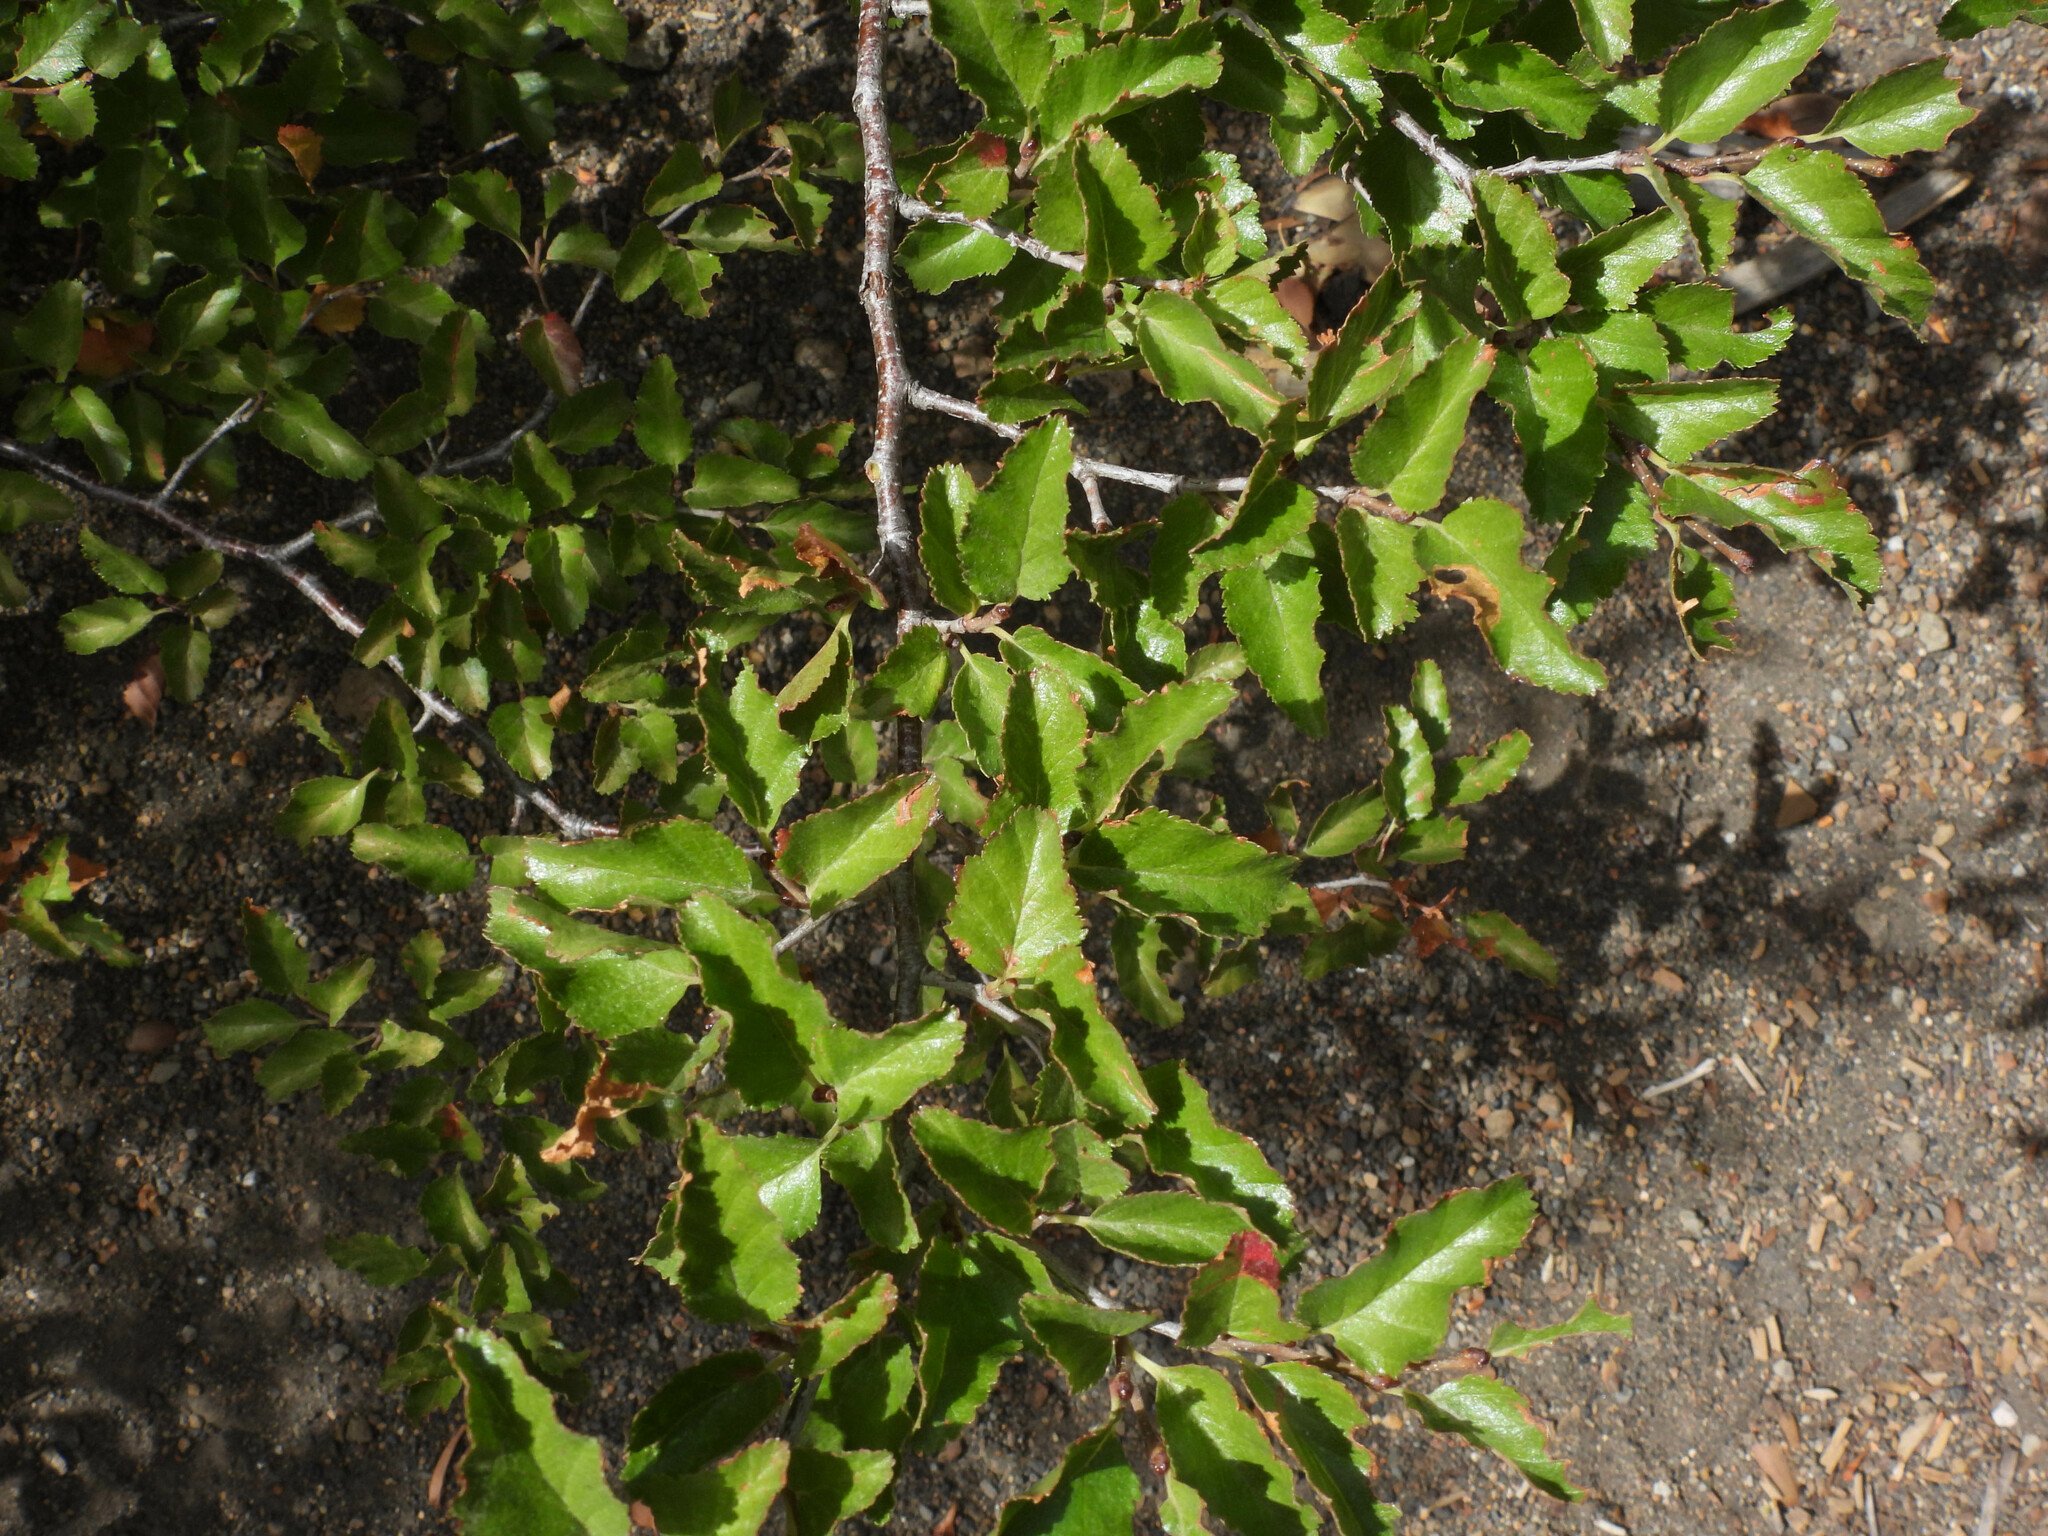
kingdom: Plantae
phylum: Tracheophyta
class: Magnoliopsida
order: Fagales
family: Nothofagaceae
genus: Nothofagus
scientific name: Nothofagus antarctica
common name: Antarctic beech
